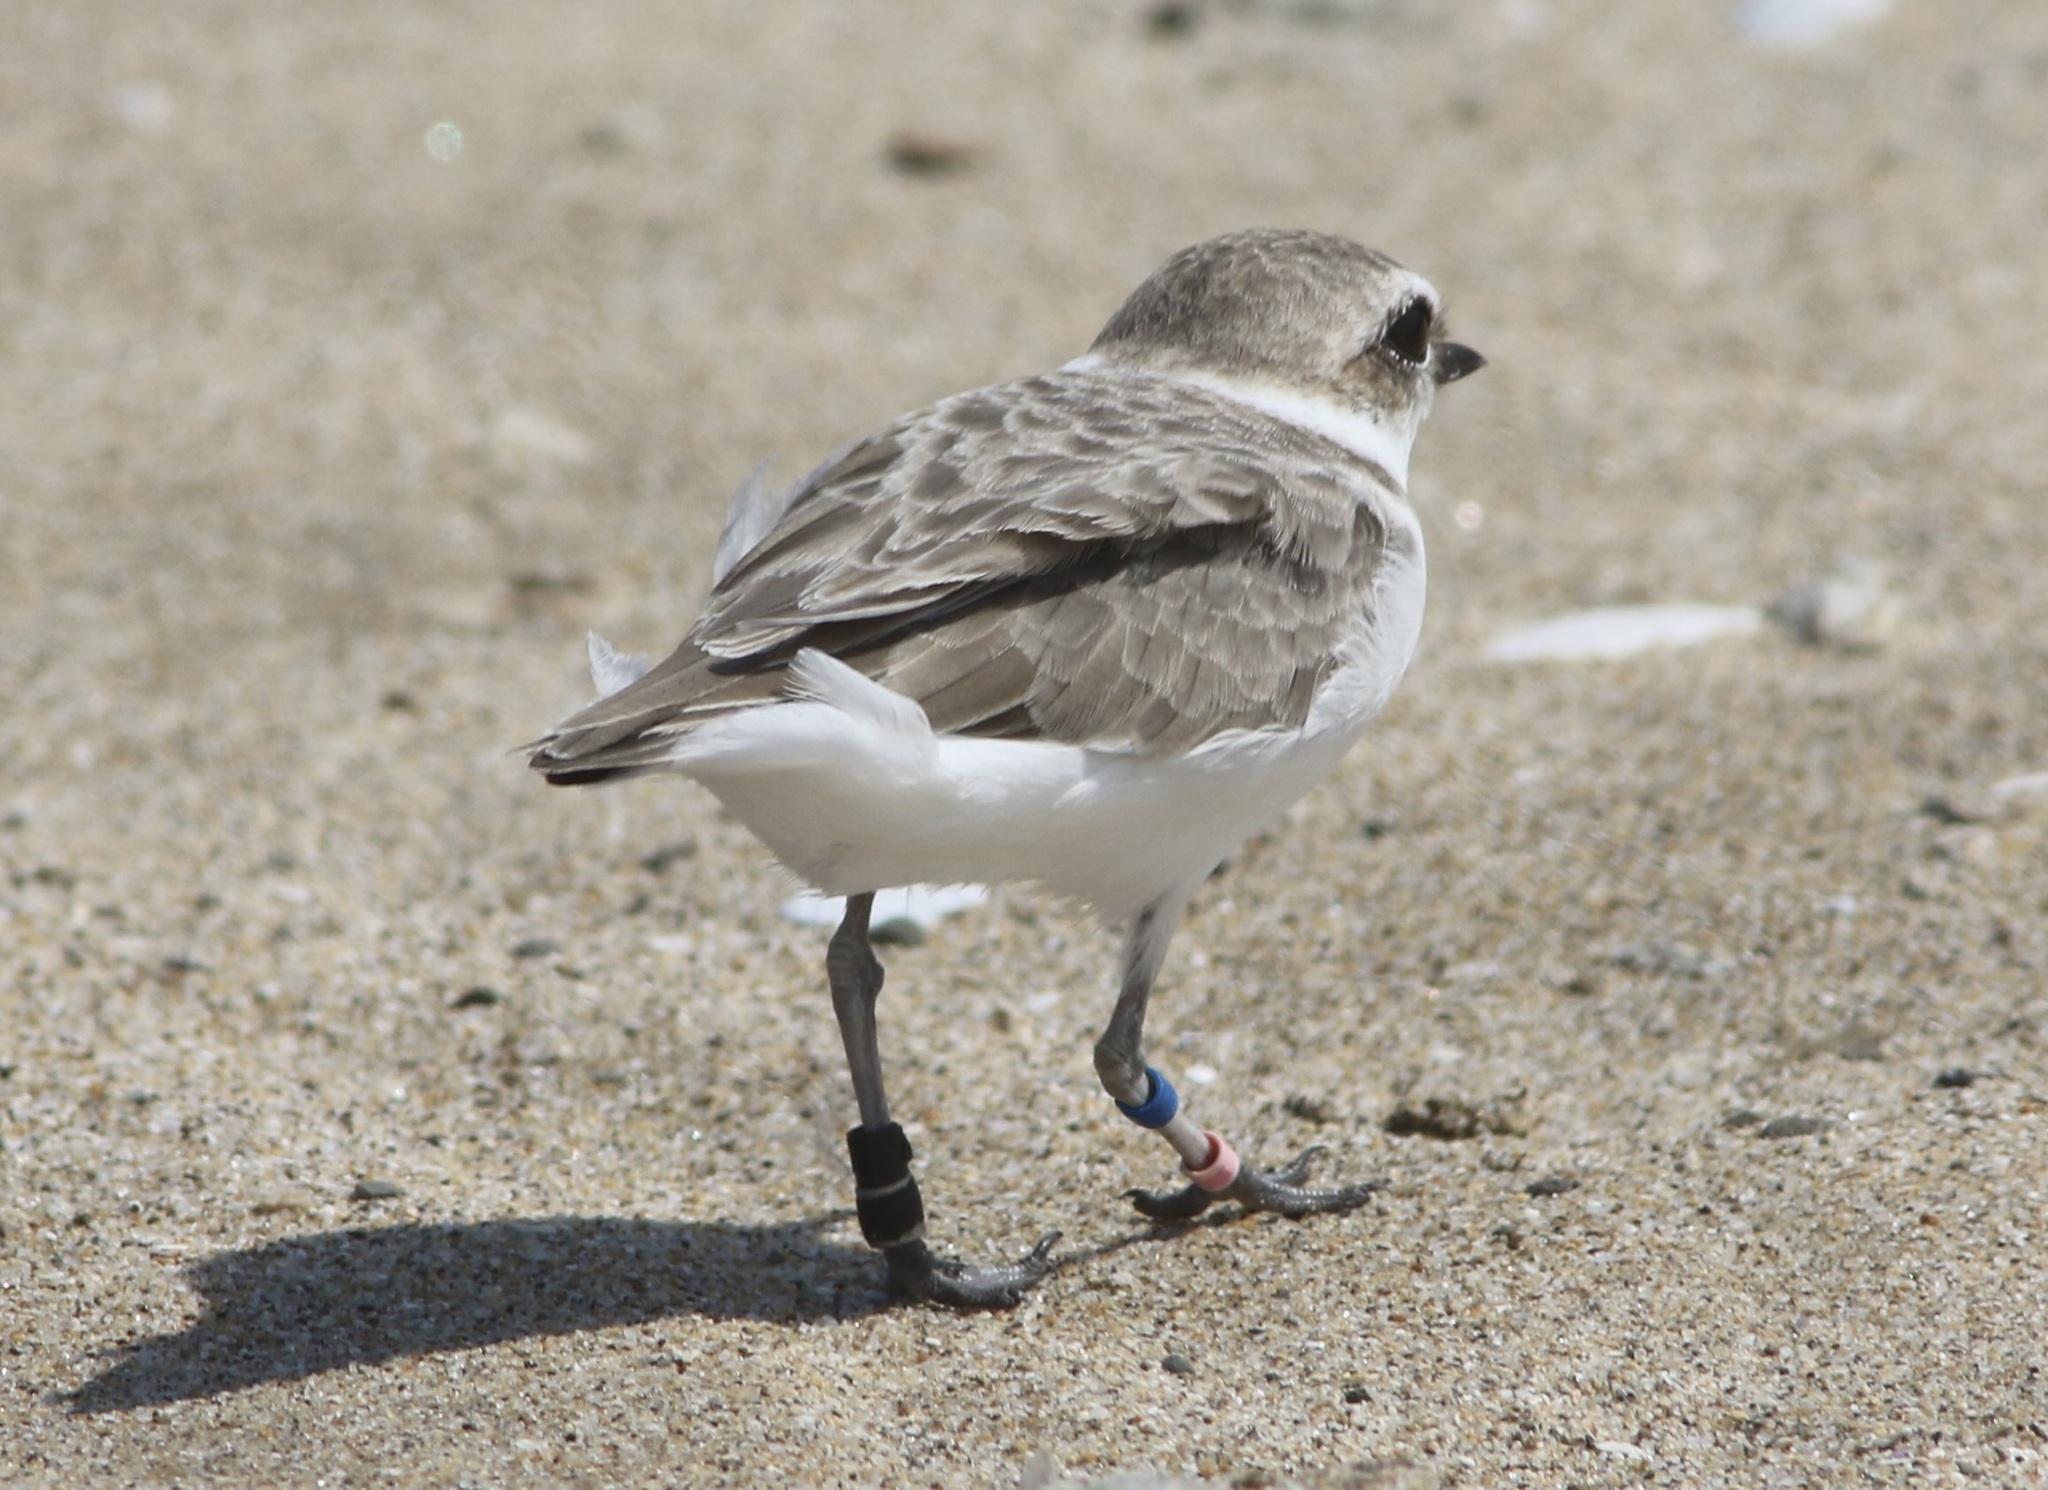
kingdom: Animalia
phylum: Chordata
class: Aves
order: Charadriiformes
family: Charadriidae
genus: Anarhynchus
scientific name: Anarhynchus
